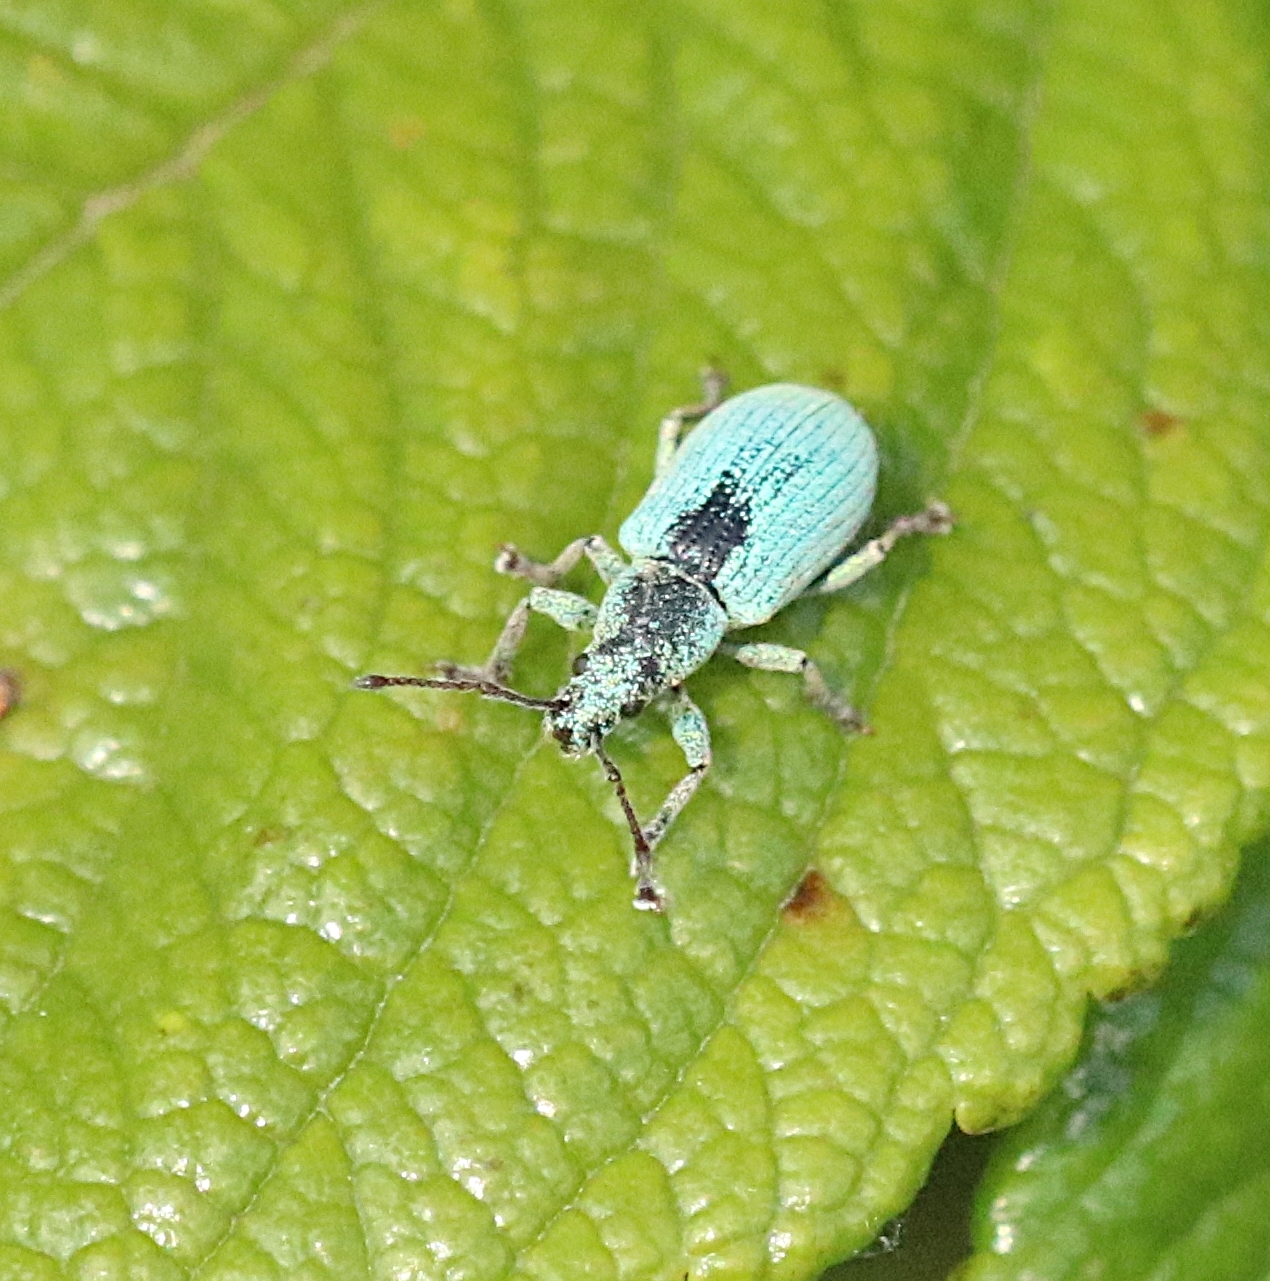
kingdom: Animalia
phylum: Arthropoda
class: Insecta
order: Coleoptera
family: Curculionidae
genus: Phyllobius
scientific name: Phyllobius virideaeris
